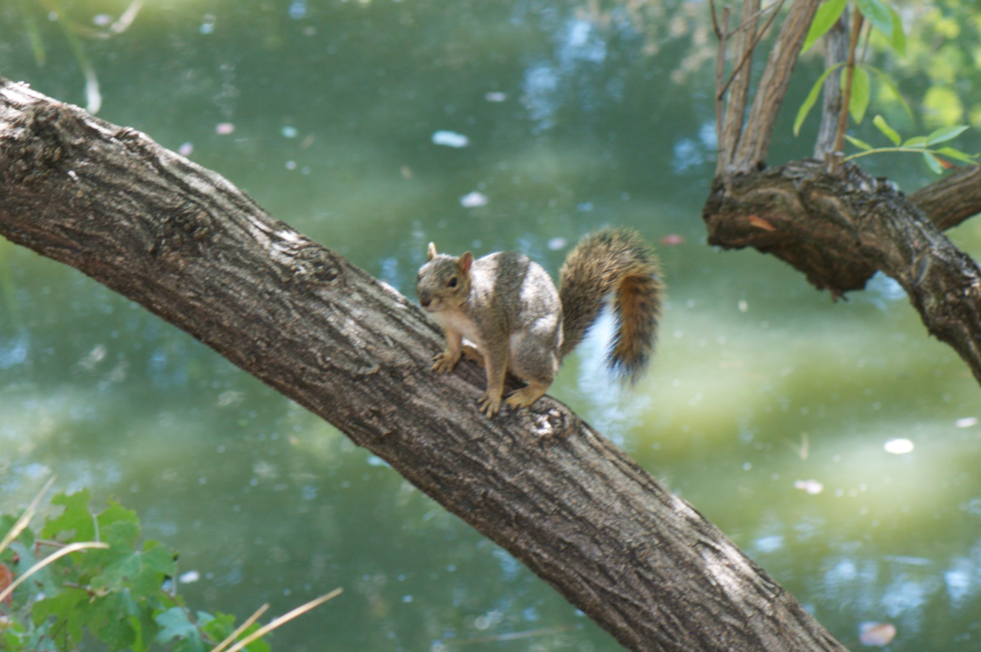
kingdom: Animalia
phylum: Chordata
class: Mammalia
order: Rodentia
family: Sciuridae
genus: Sciurus
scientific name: Sciurus niger
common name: Fox squirrel
